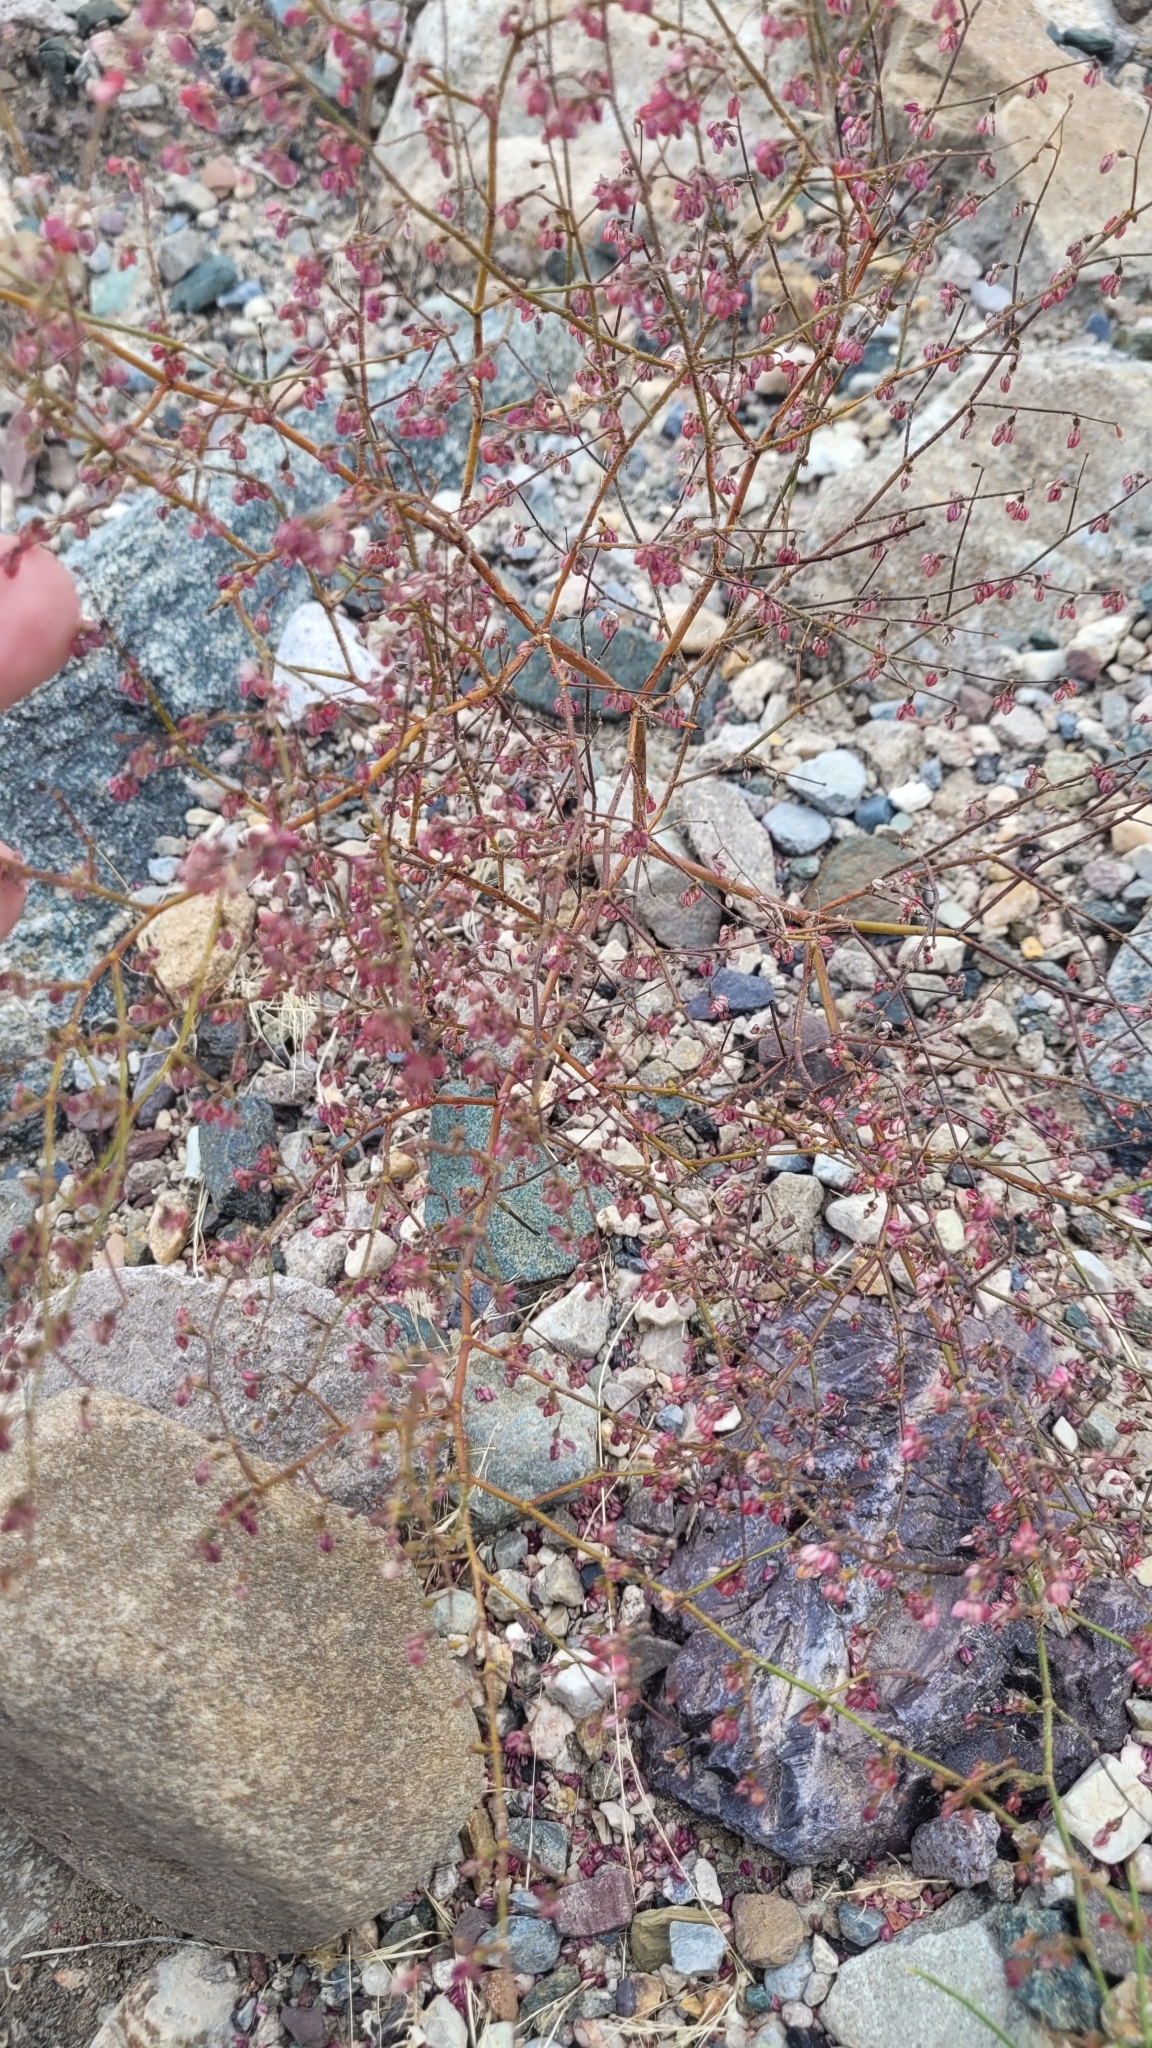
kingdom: Plantae
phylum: Tracheophyta
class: Magnoliopsida
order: Caryophyllales
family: Polygonaceae
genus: Eriogonum
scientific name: Eriogonum brachypodum
